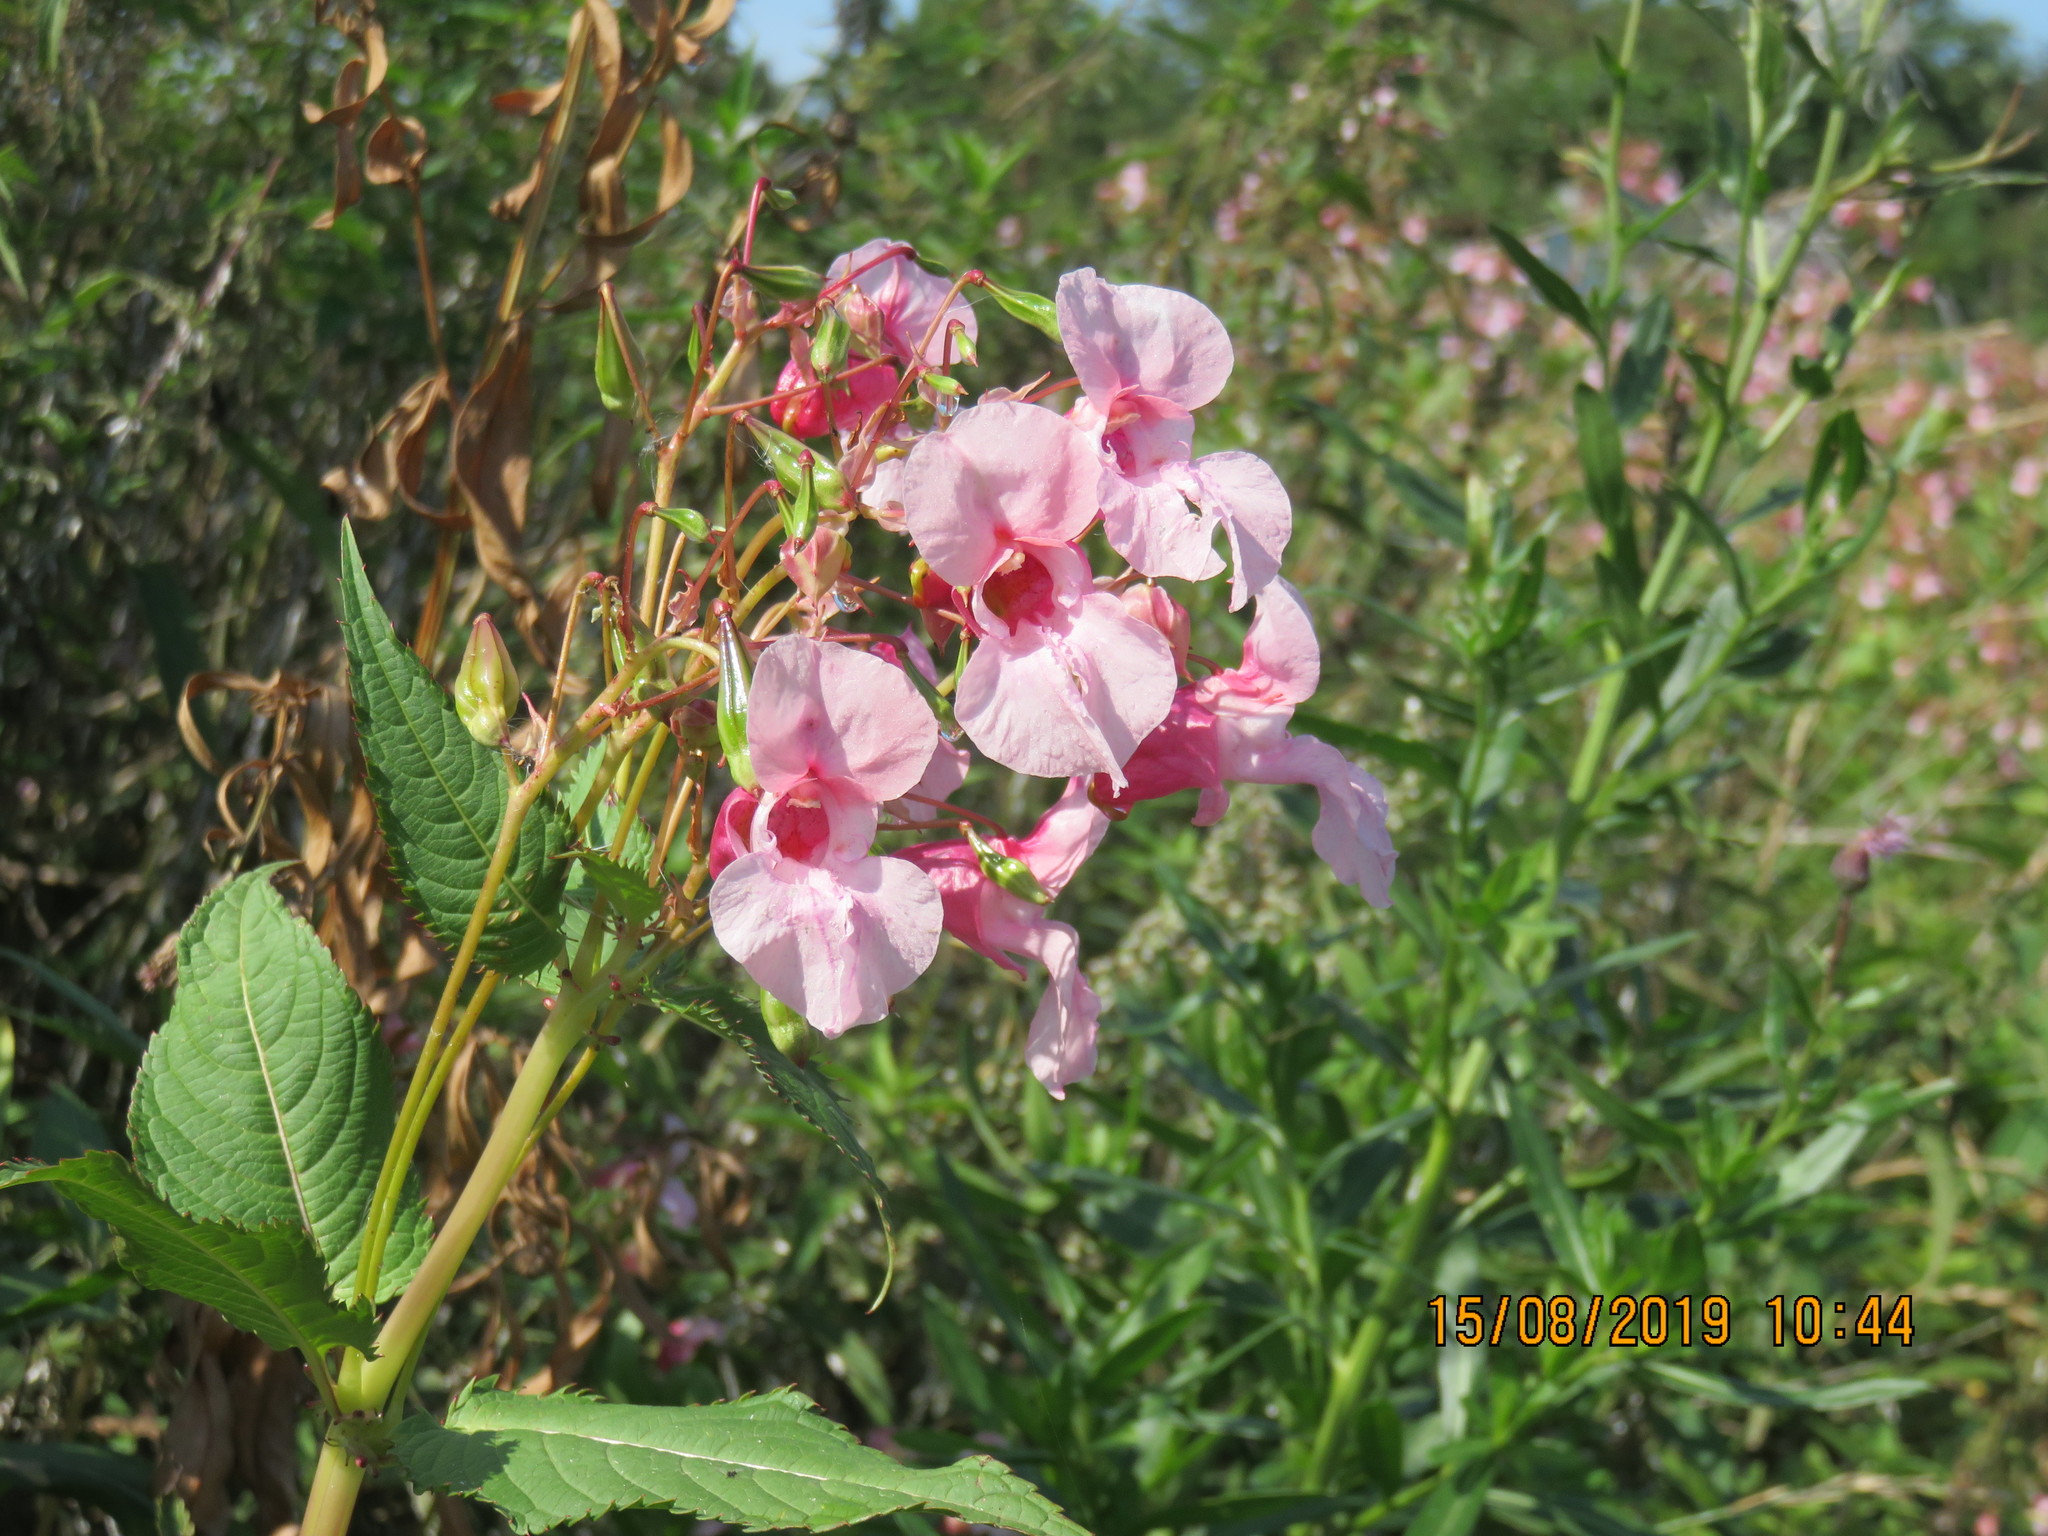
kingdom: Plantae
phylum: Tracheophyta
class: Magnoliopsida
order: Ericales
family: Balsaminaceae
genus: Impatiens
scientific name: Impatiens glandulifera
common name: Himalayan balsam
